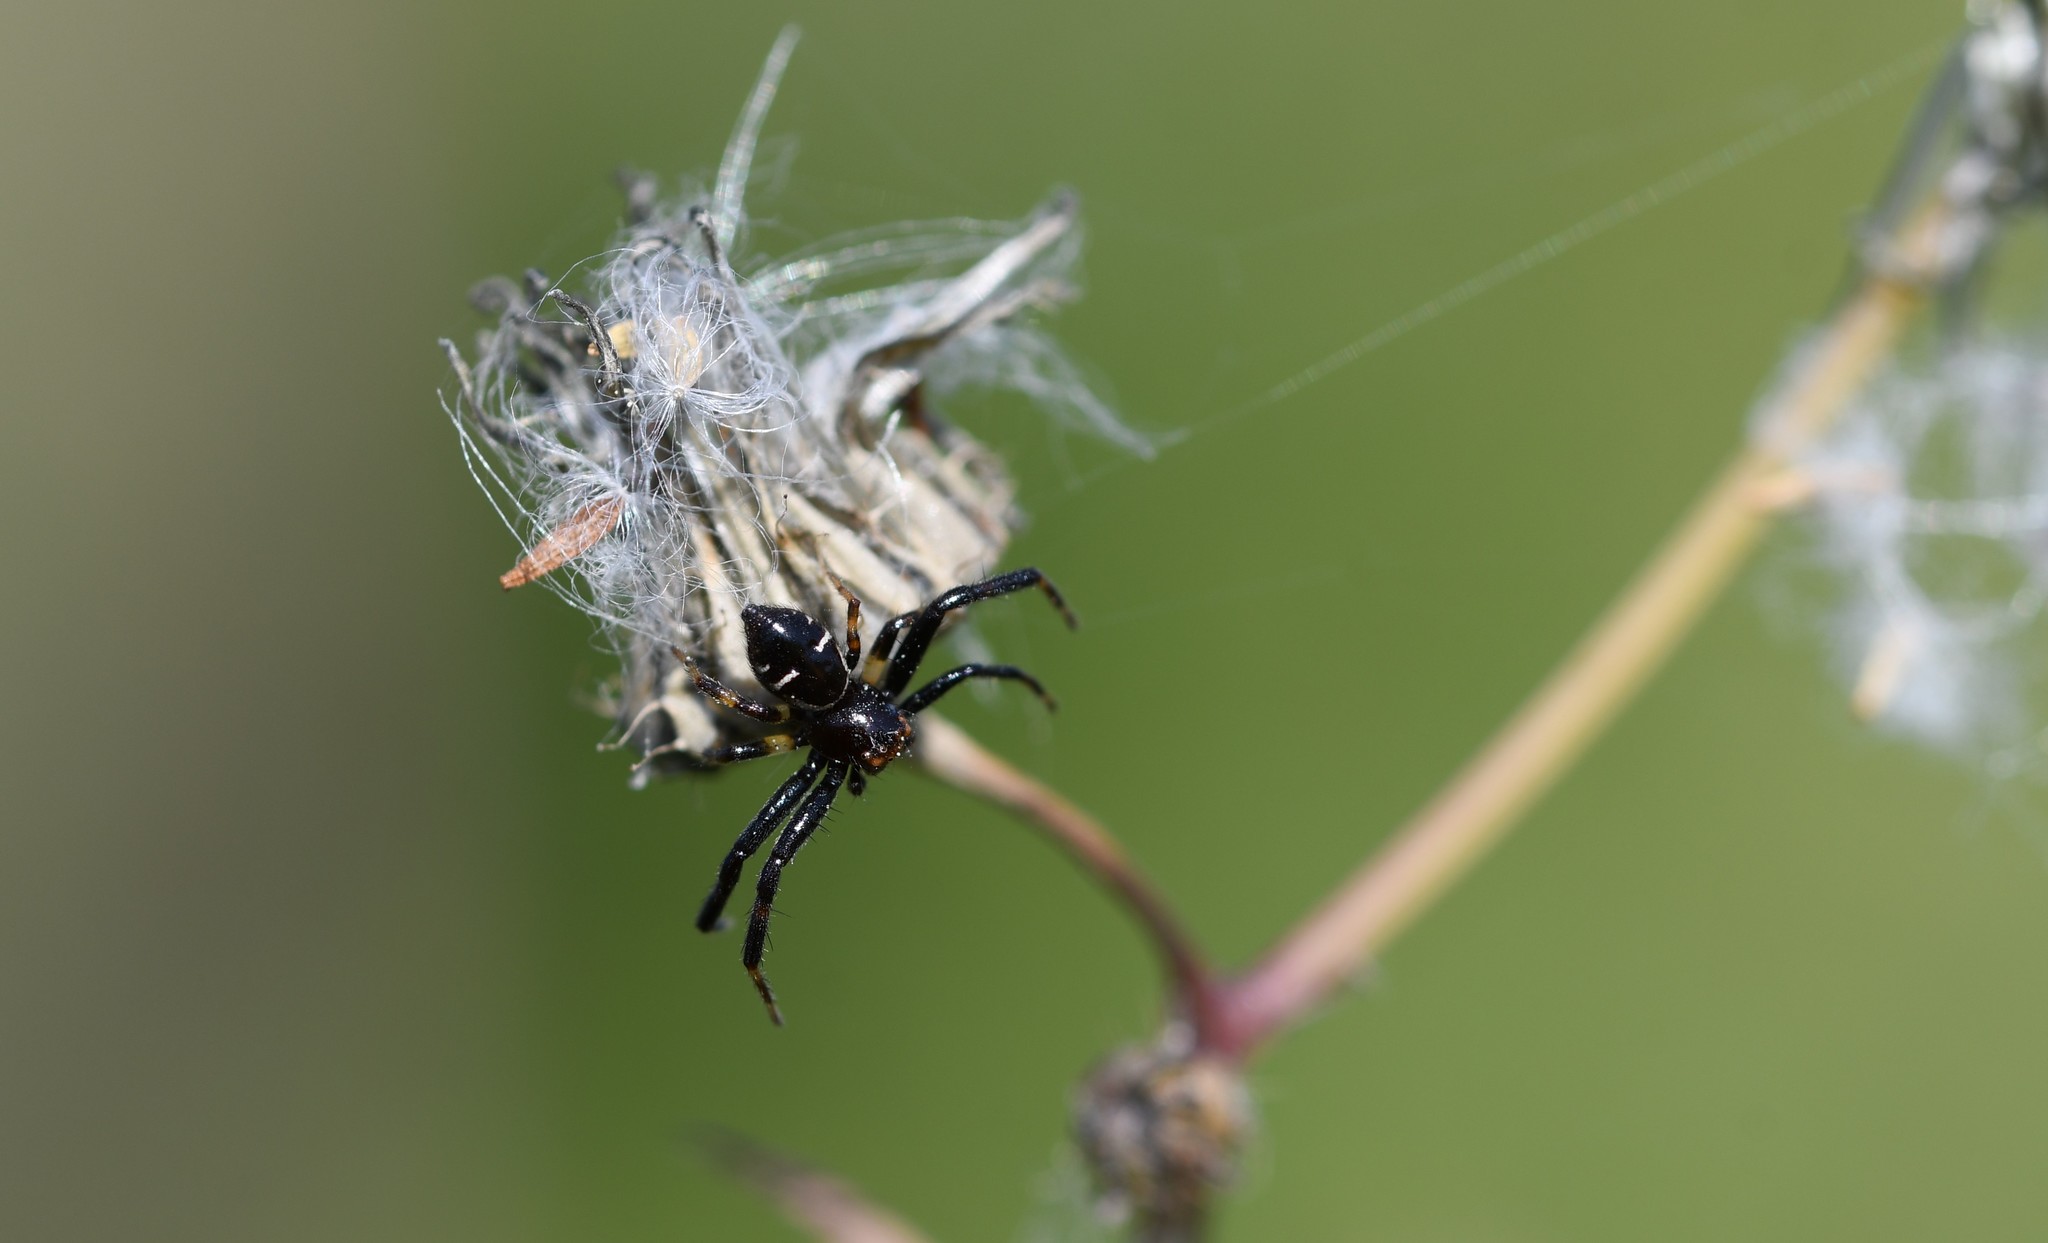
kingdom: Animalia
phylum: Arthropoda
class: Arachnida
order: Araneae
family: Thomisidae
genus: Synema
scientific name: Synema globosum
